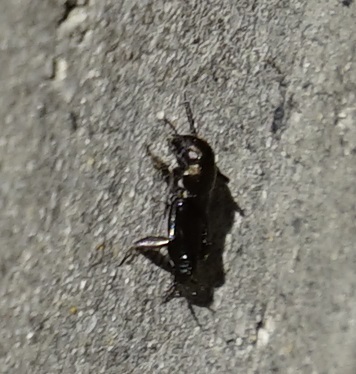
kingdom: Animalia
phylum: Arthropoda
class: Insecta
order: Orthoptera
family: Tridactylidae
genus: Xya
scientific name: Xya muta
